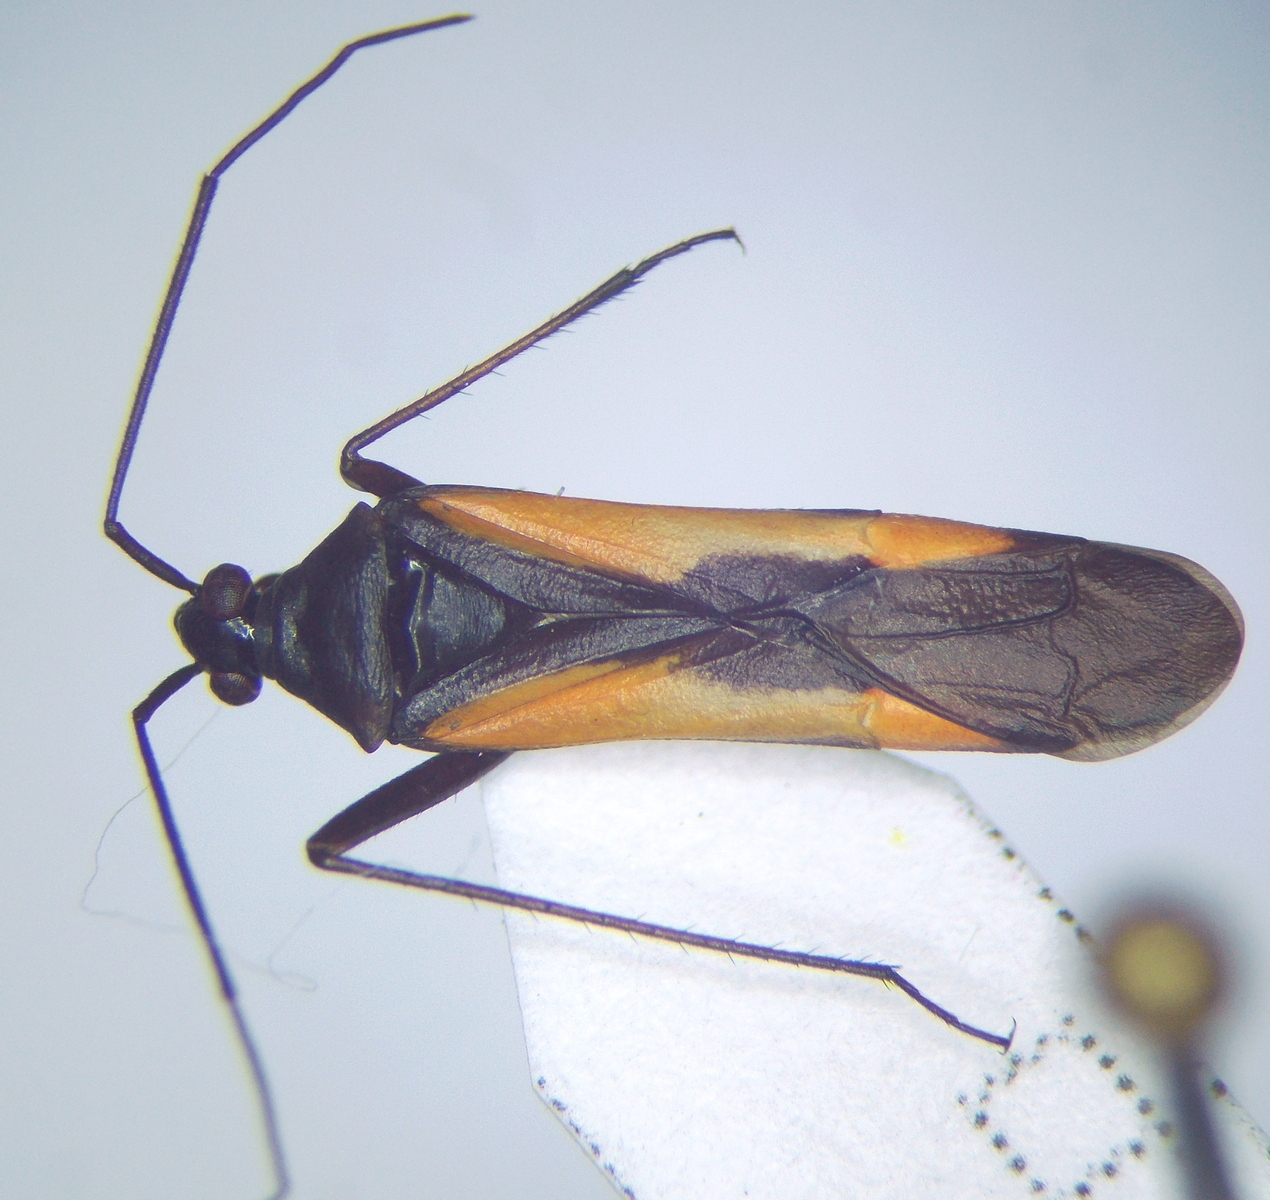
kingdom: Animalia
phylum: Arthropoda
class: Insecta
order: Hemiptera
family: Miridae
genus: Alloeonotus
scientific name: Alloeonotus fulvipes
